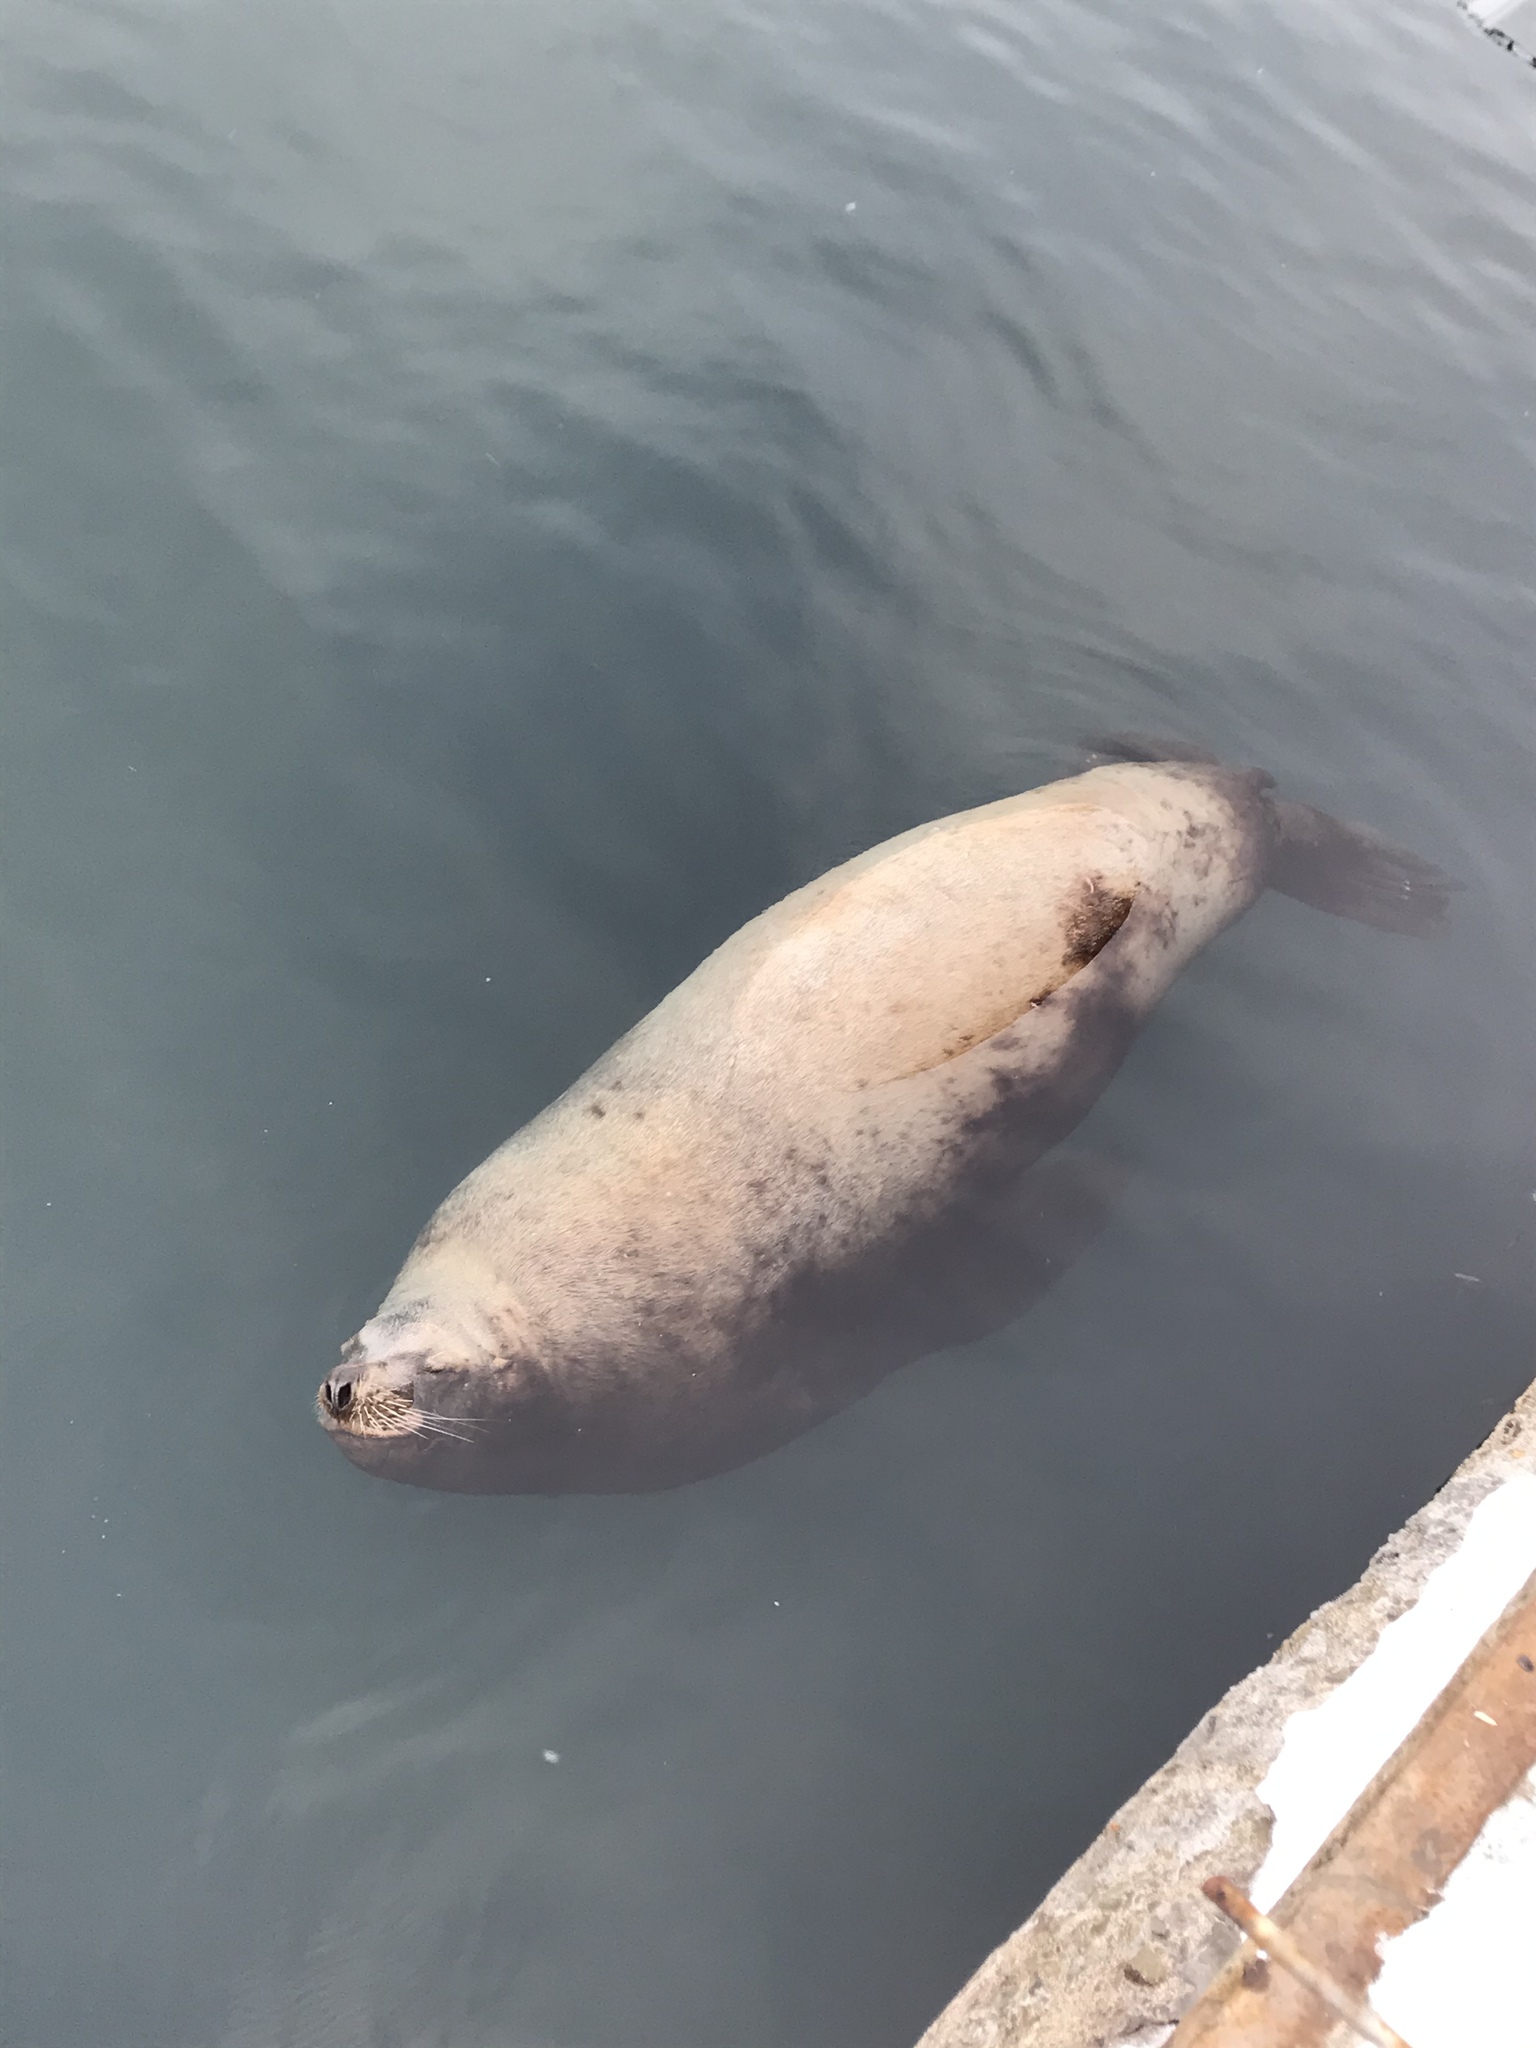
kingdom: Animalia
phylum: Chordata
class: Mammalia
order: Carnivora
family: Otariidae
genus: Eumetopias
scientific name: Eumetopias jubatus
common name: Steller sea lion
